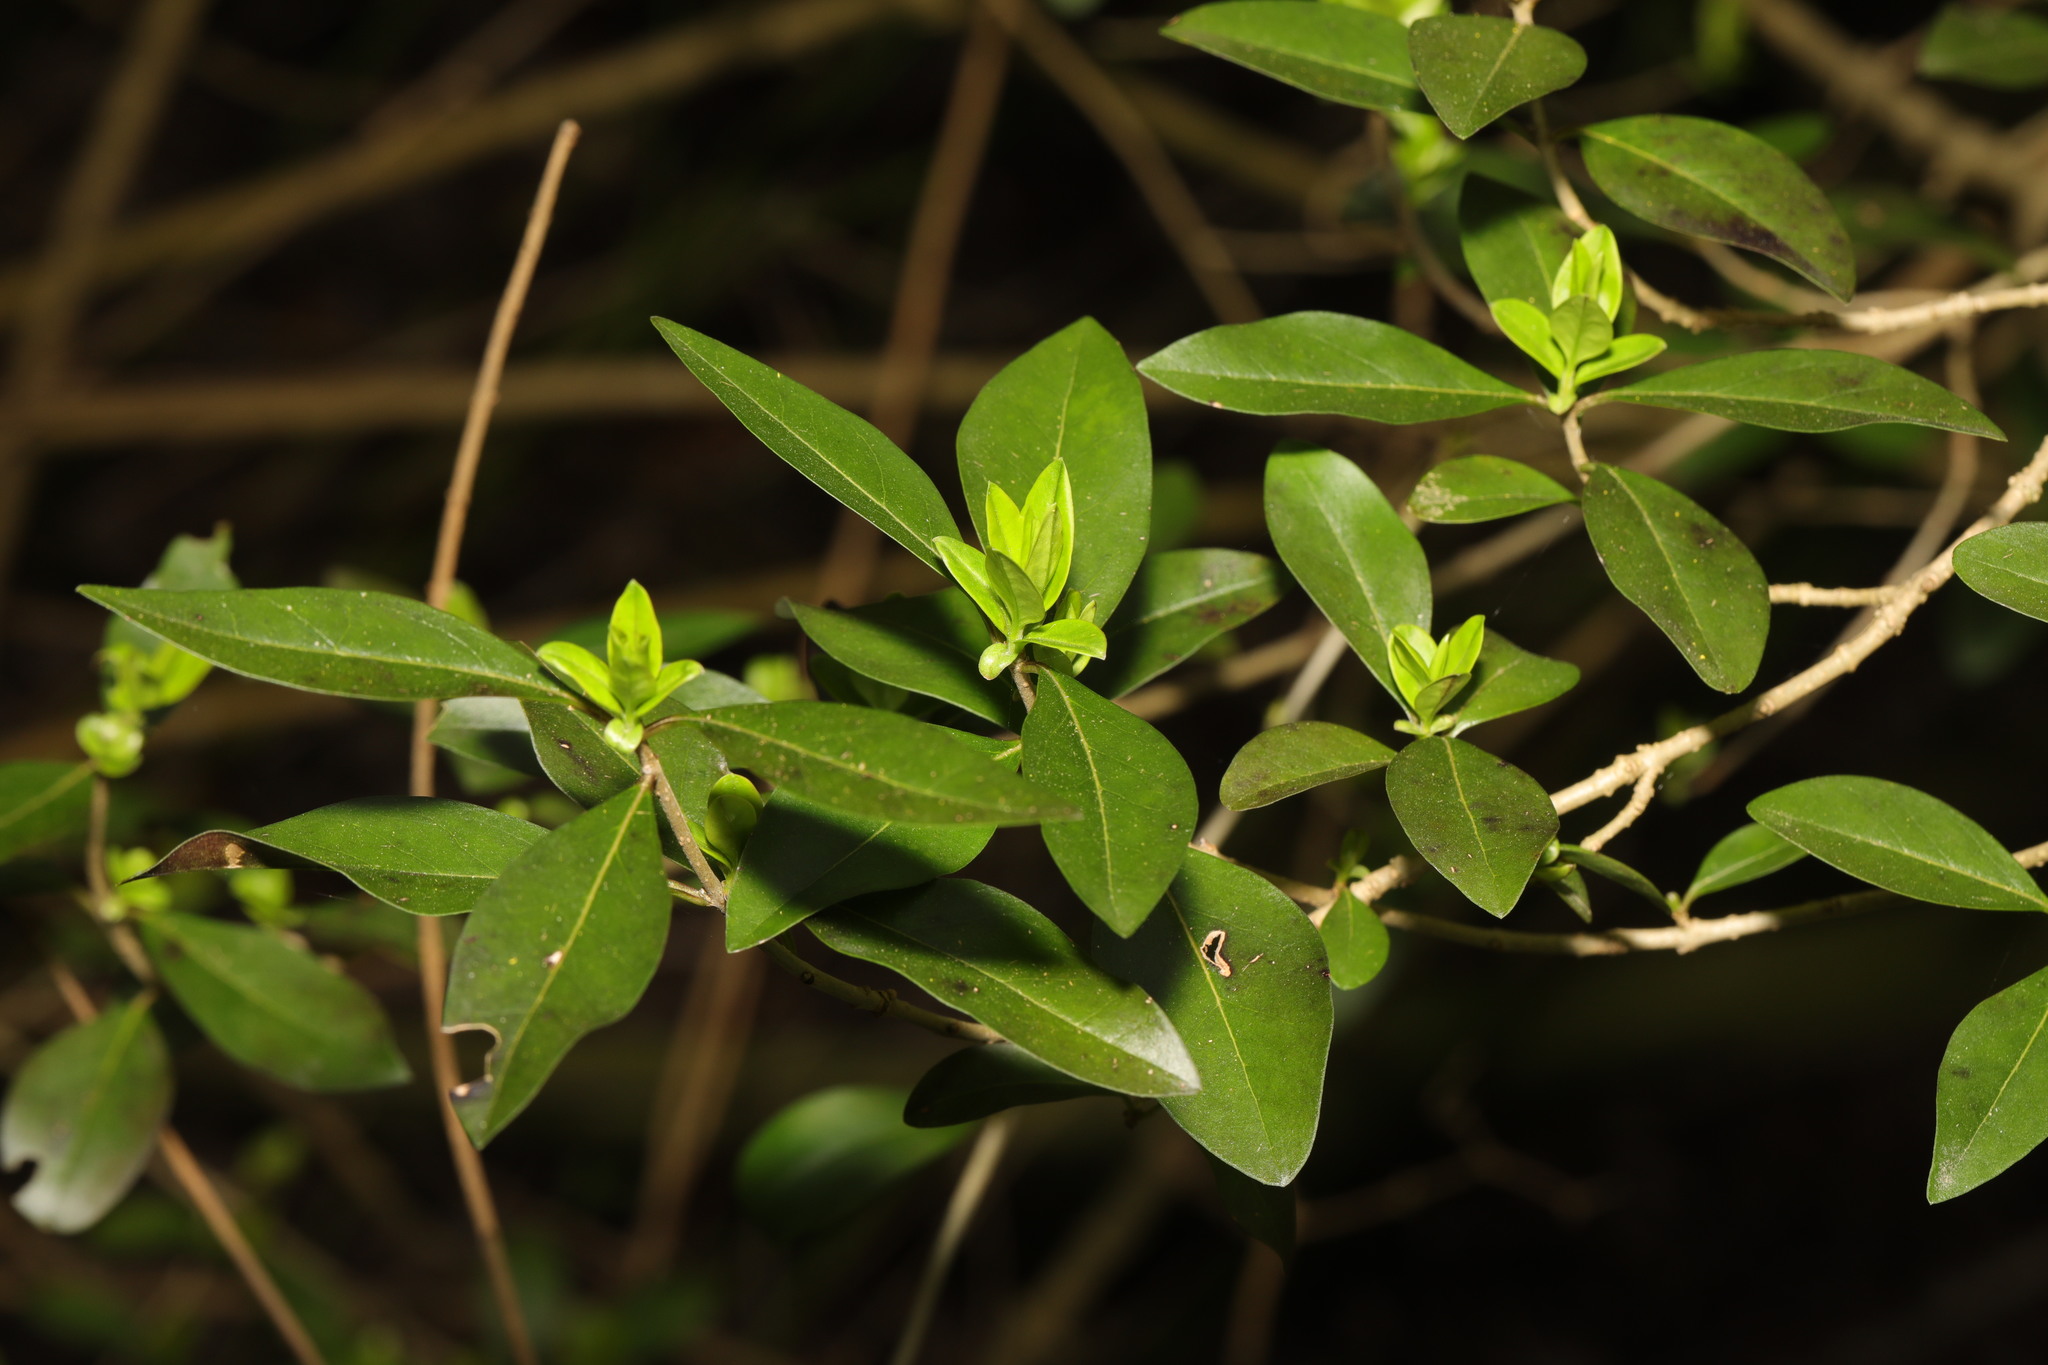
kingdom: Plantae
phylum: Tracheophyta
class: Magnoliopsida
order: Lamiales
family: Oleaceae
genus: Ligustrum
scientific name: Ligustrum vulgare
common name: Wild privet
